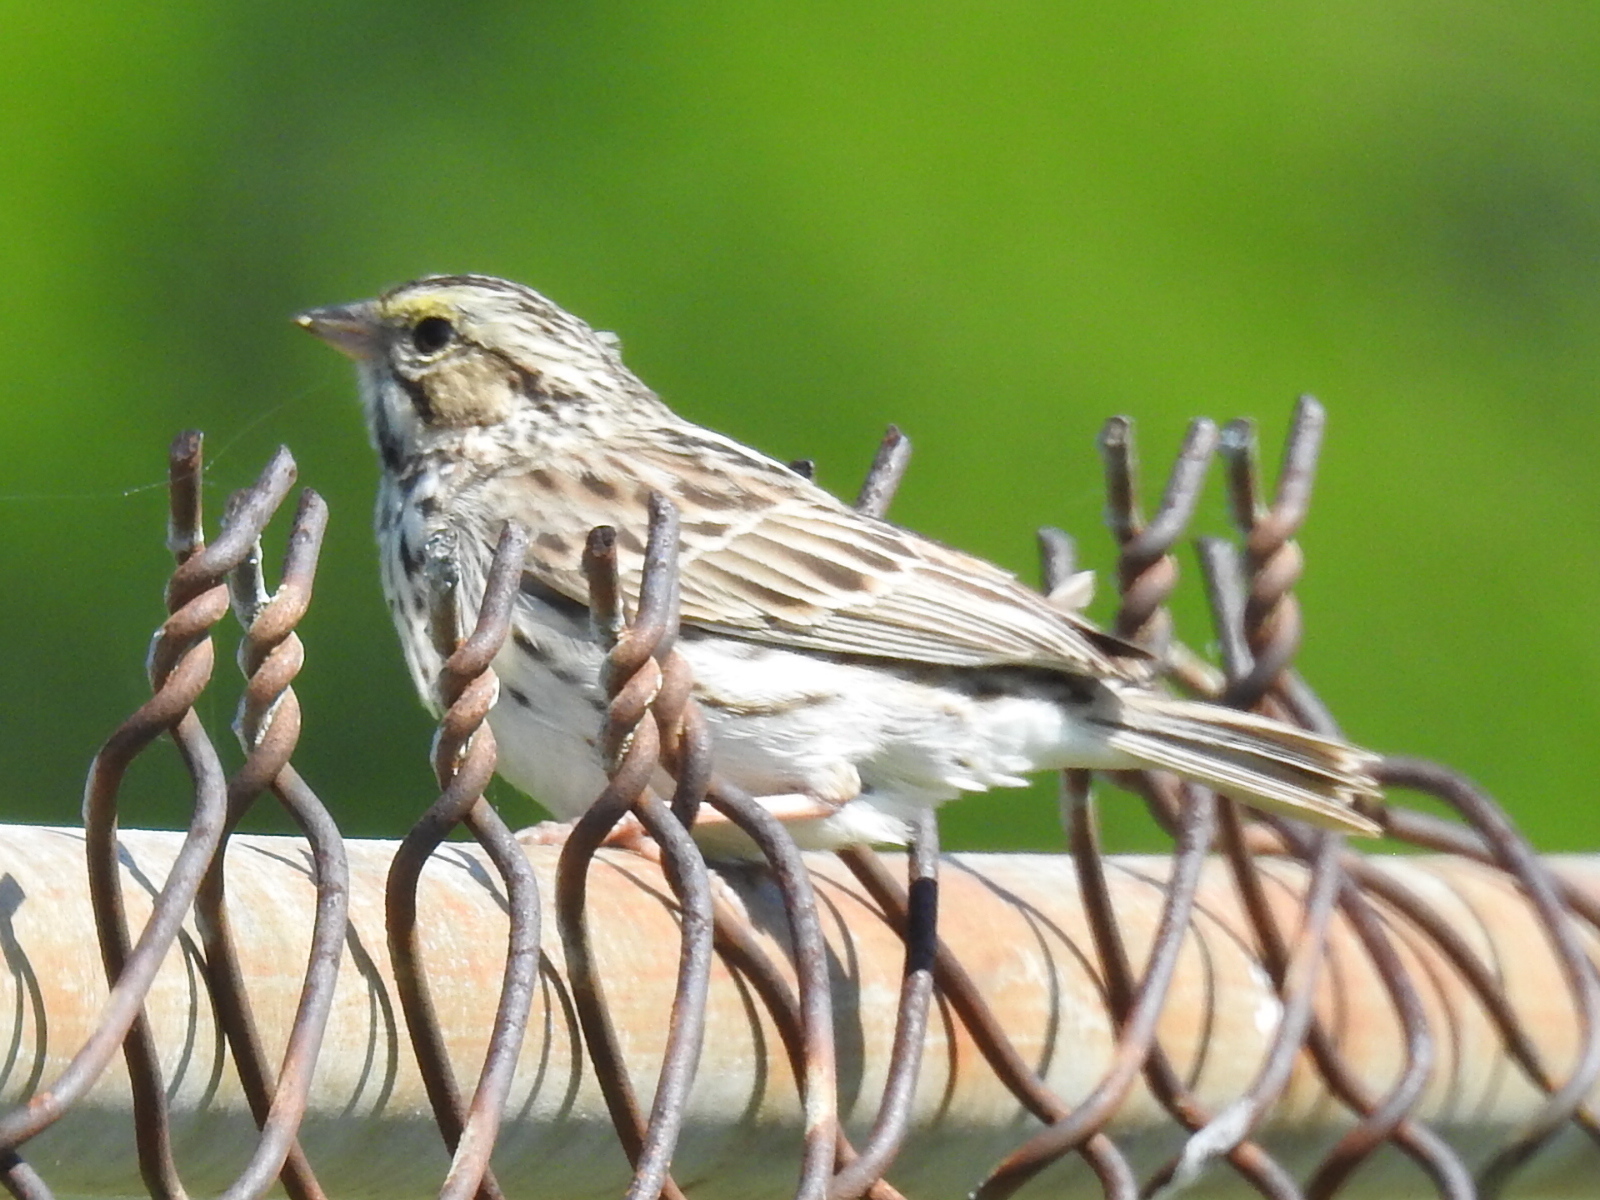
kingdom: Animalia
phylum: Chordata
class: Aves
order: Passeriformes
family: Passerellidae
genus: Passerculus
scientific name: Passerculus sandwichensis
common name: Savannah sparrow
